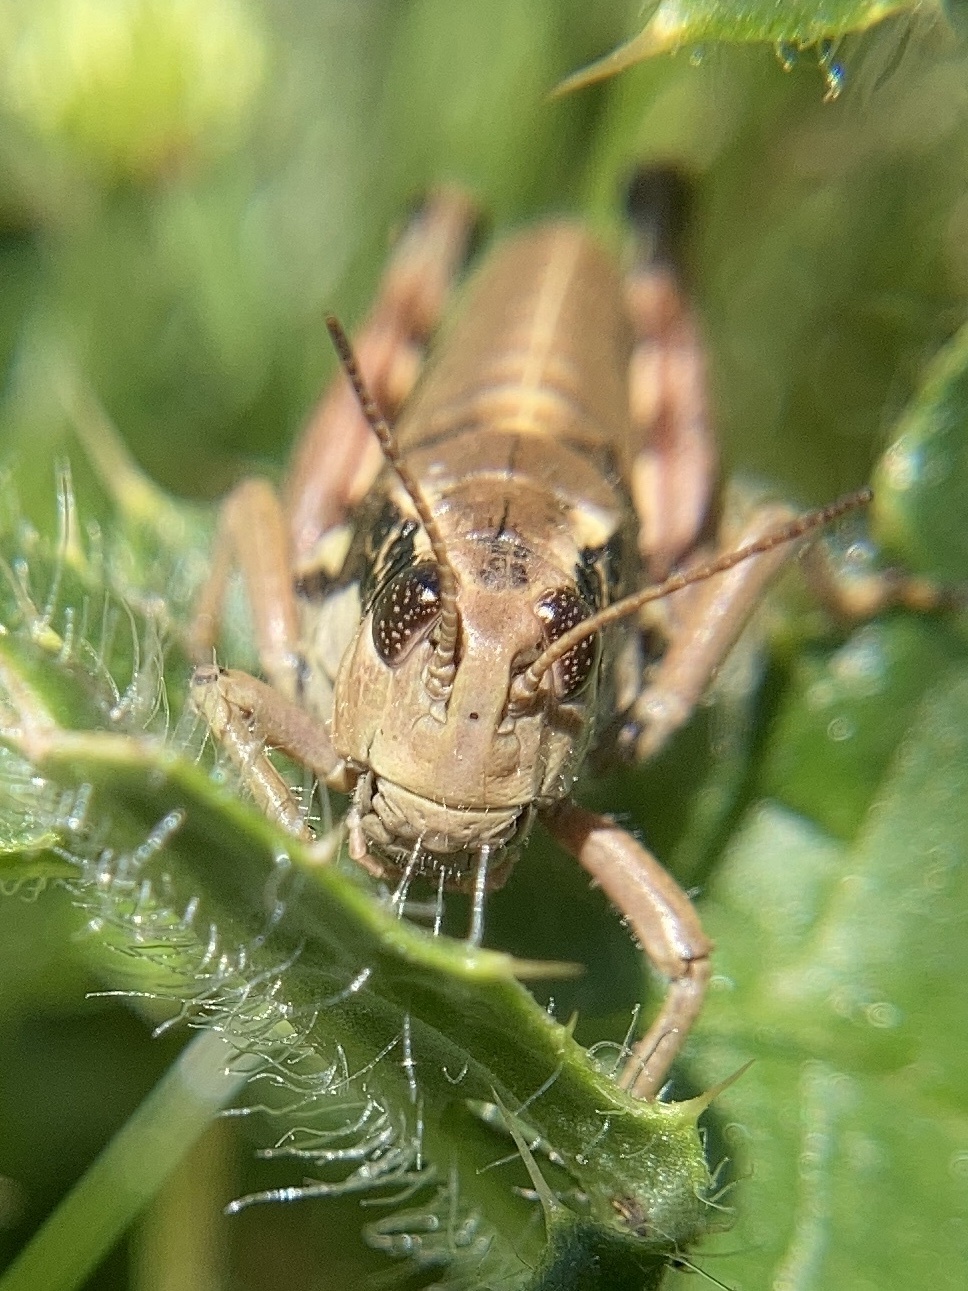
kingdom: Animalia
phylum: Arthropoda
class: Insecta
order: Orthoptera
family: Acrididae
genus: Podisma
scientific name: Podisma pedestris
